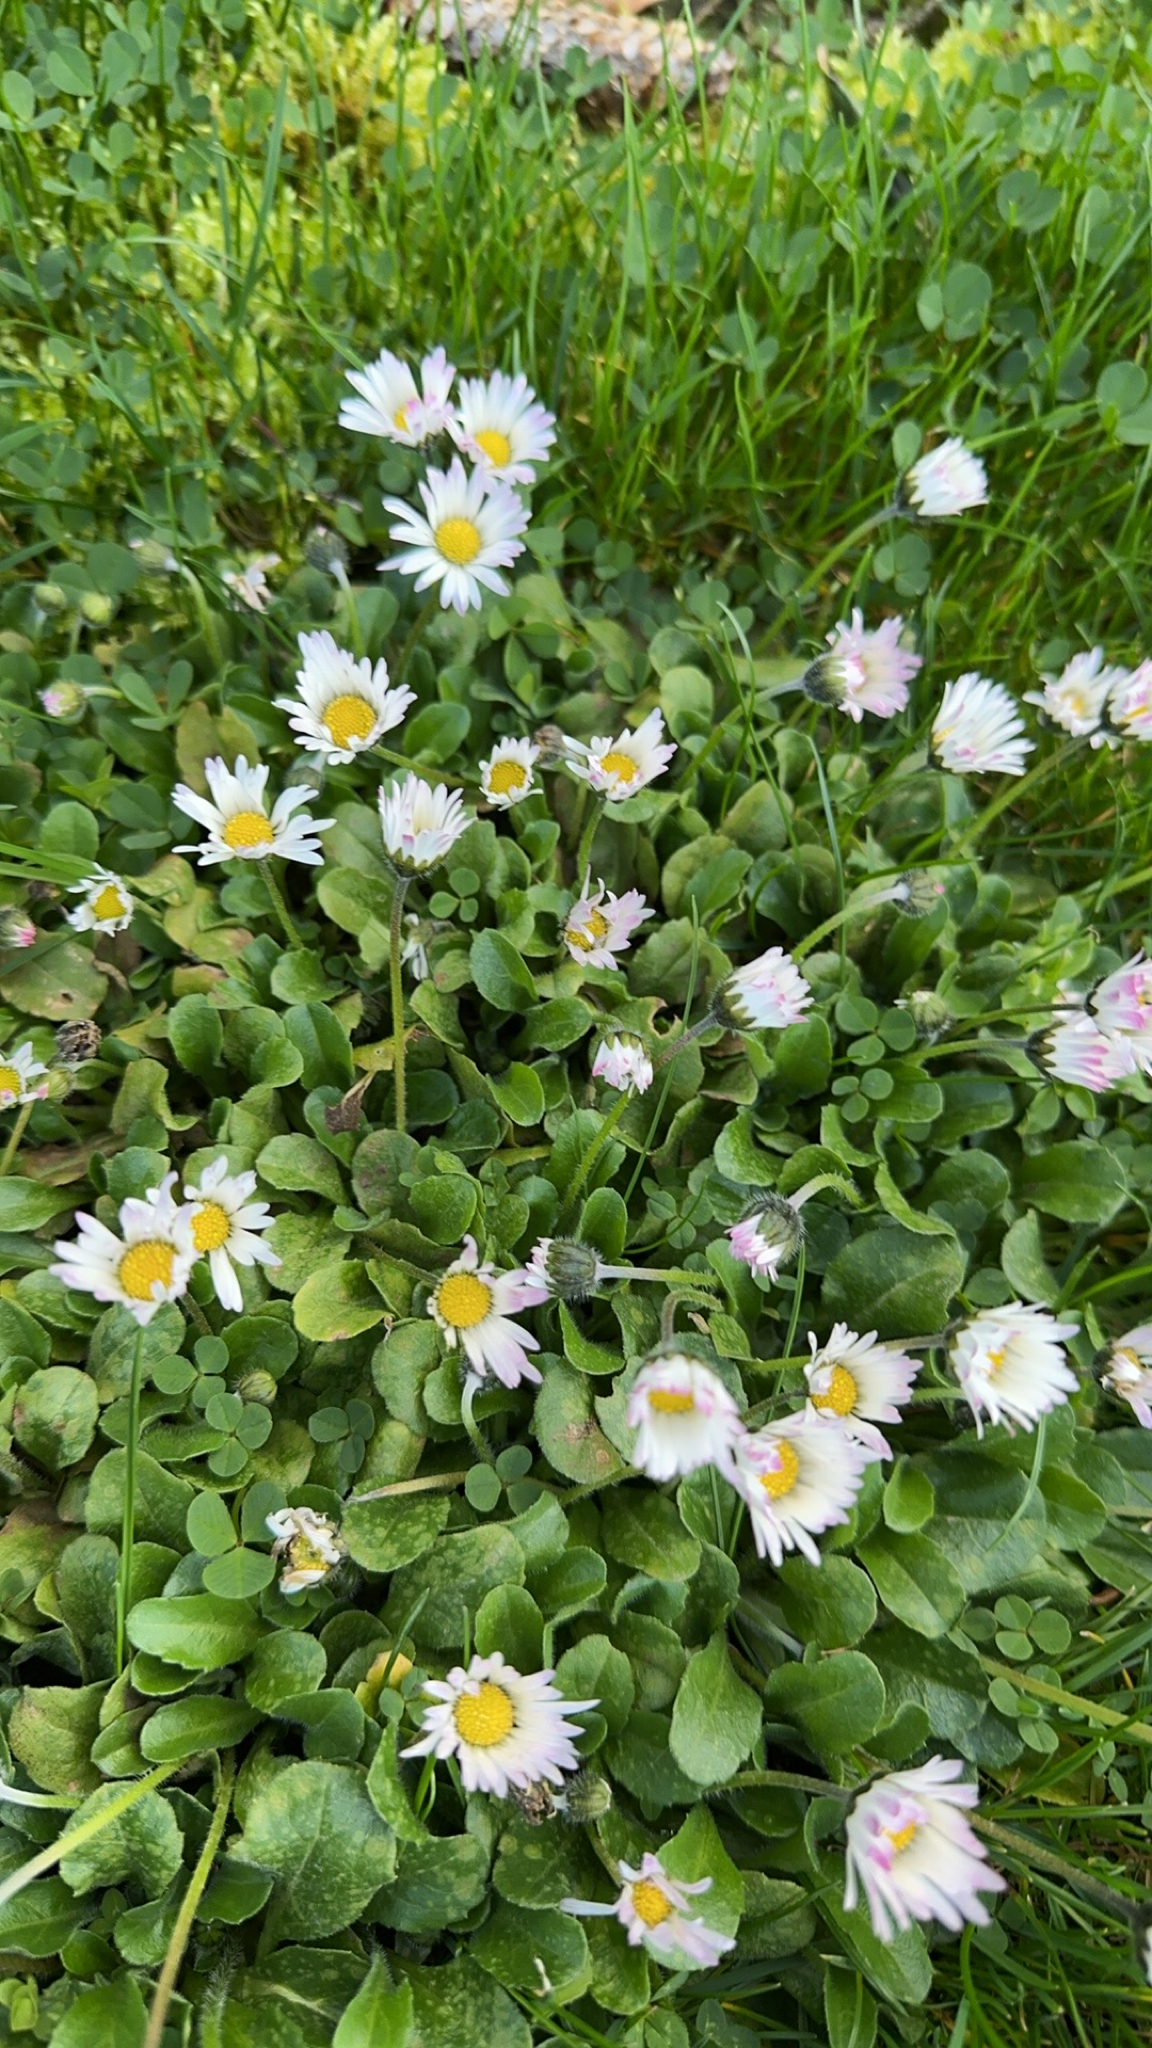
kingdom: Plantae
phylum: Tracheophyta
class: Magnoliopsida
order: Asterales
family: Asteraceae
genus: Bellis
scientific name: Bellis perennis
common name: Lawndaisy
